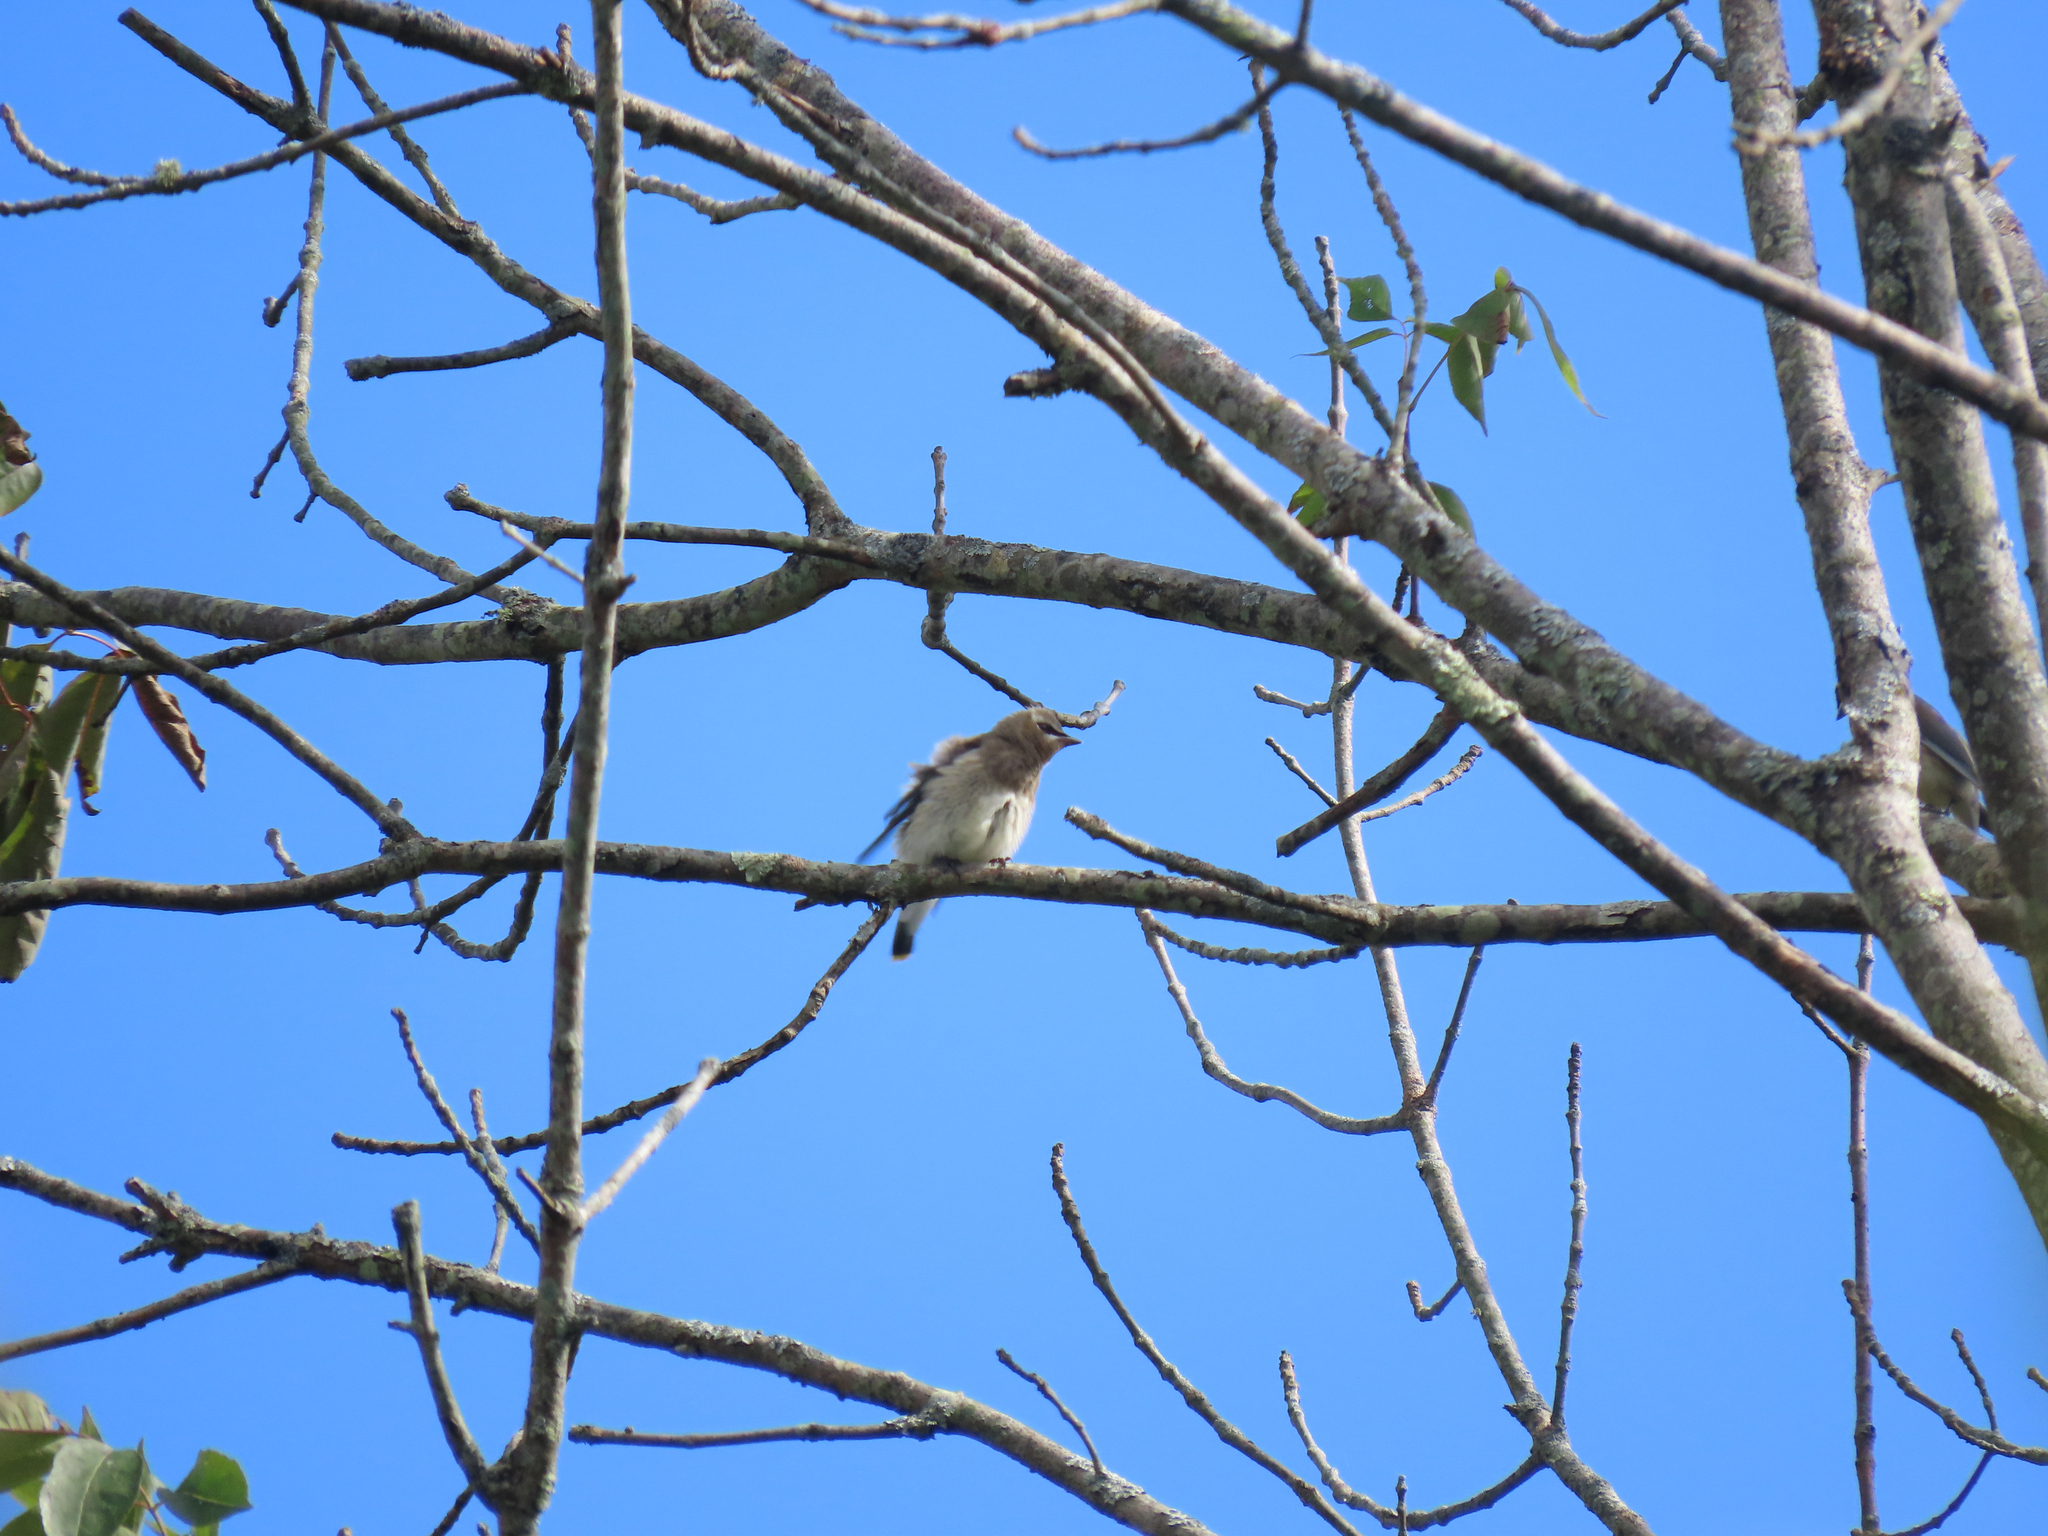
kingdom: Animalia
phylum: Chordata
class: Aves
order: Passeriformes
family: Bombycillidae
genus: Bombycilla
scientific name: Bombycilla cedrorum
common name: Cedar waxwing
